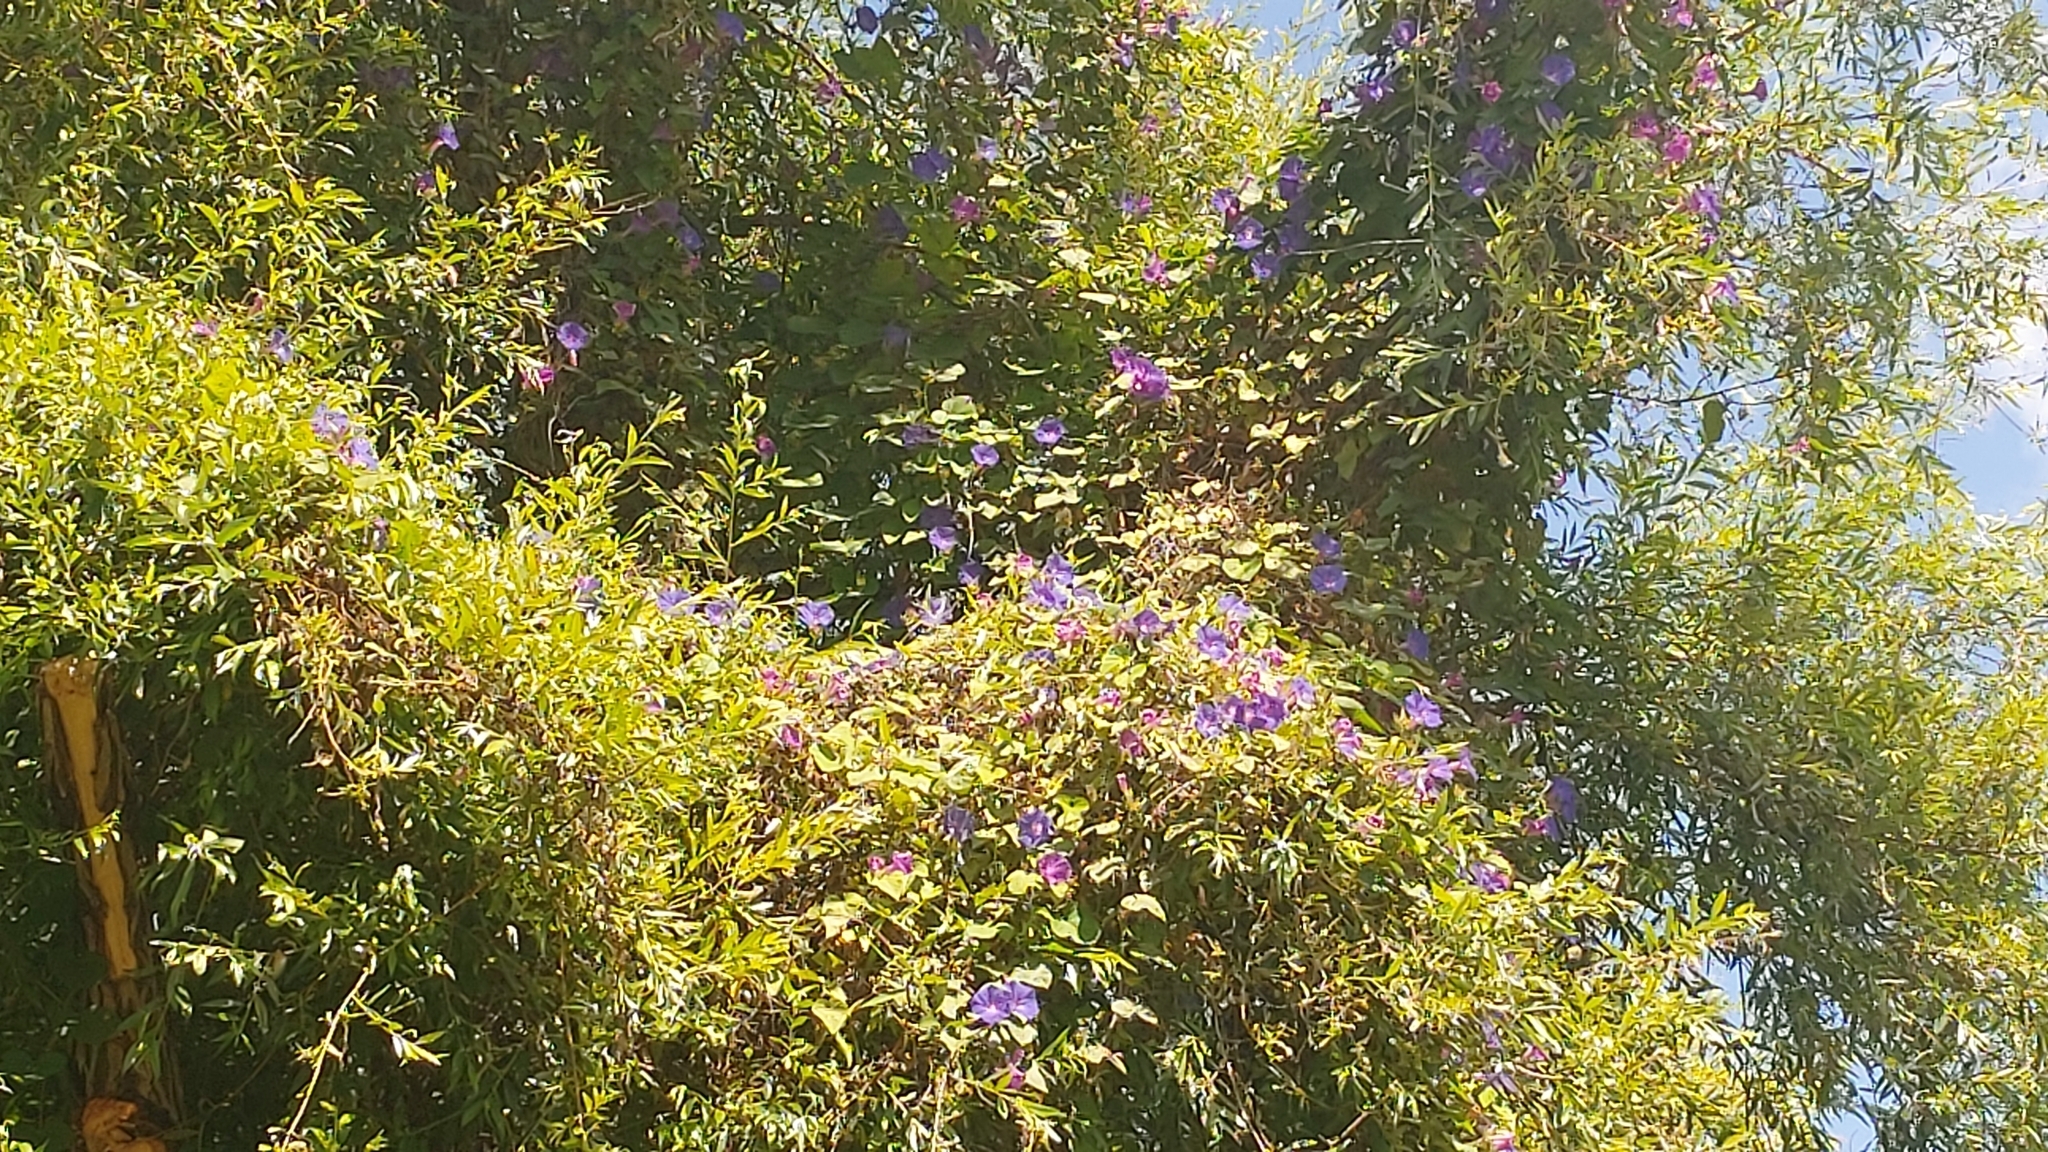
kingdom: Plantae
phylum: Tracheophyta
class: Magnoliopsida
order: Solanales
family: Convolvulaceae
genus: Ipomoea
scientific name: Ipomoea indica
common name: Blue dawnflower
